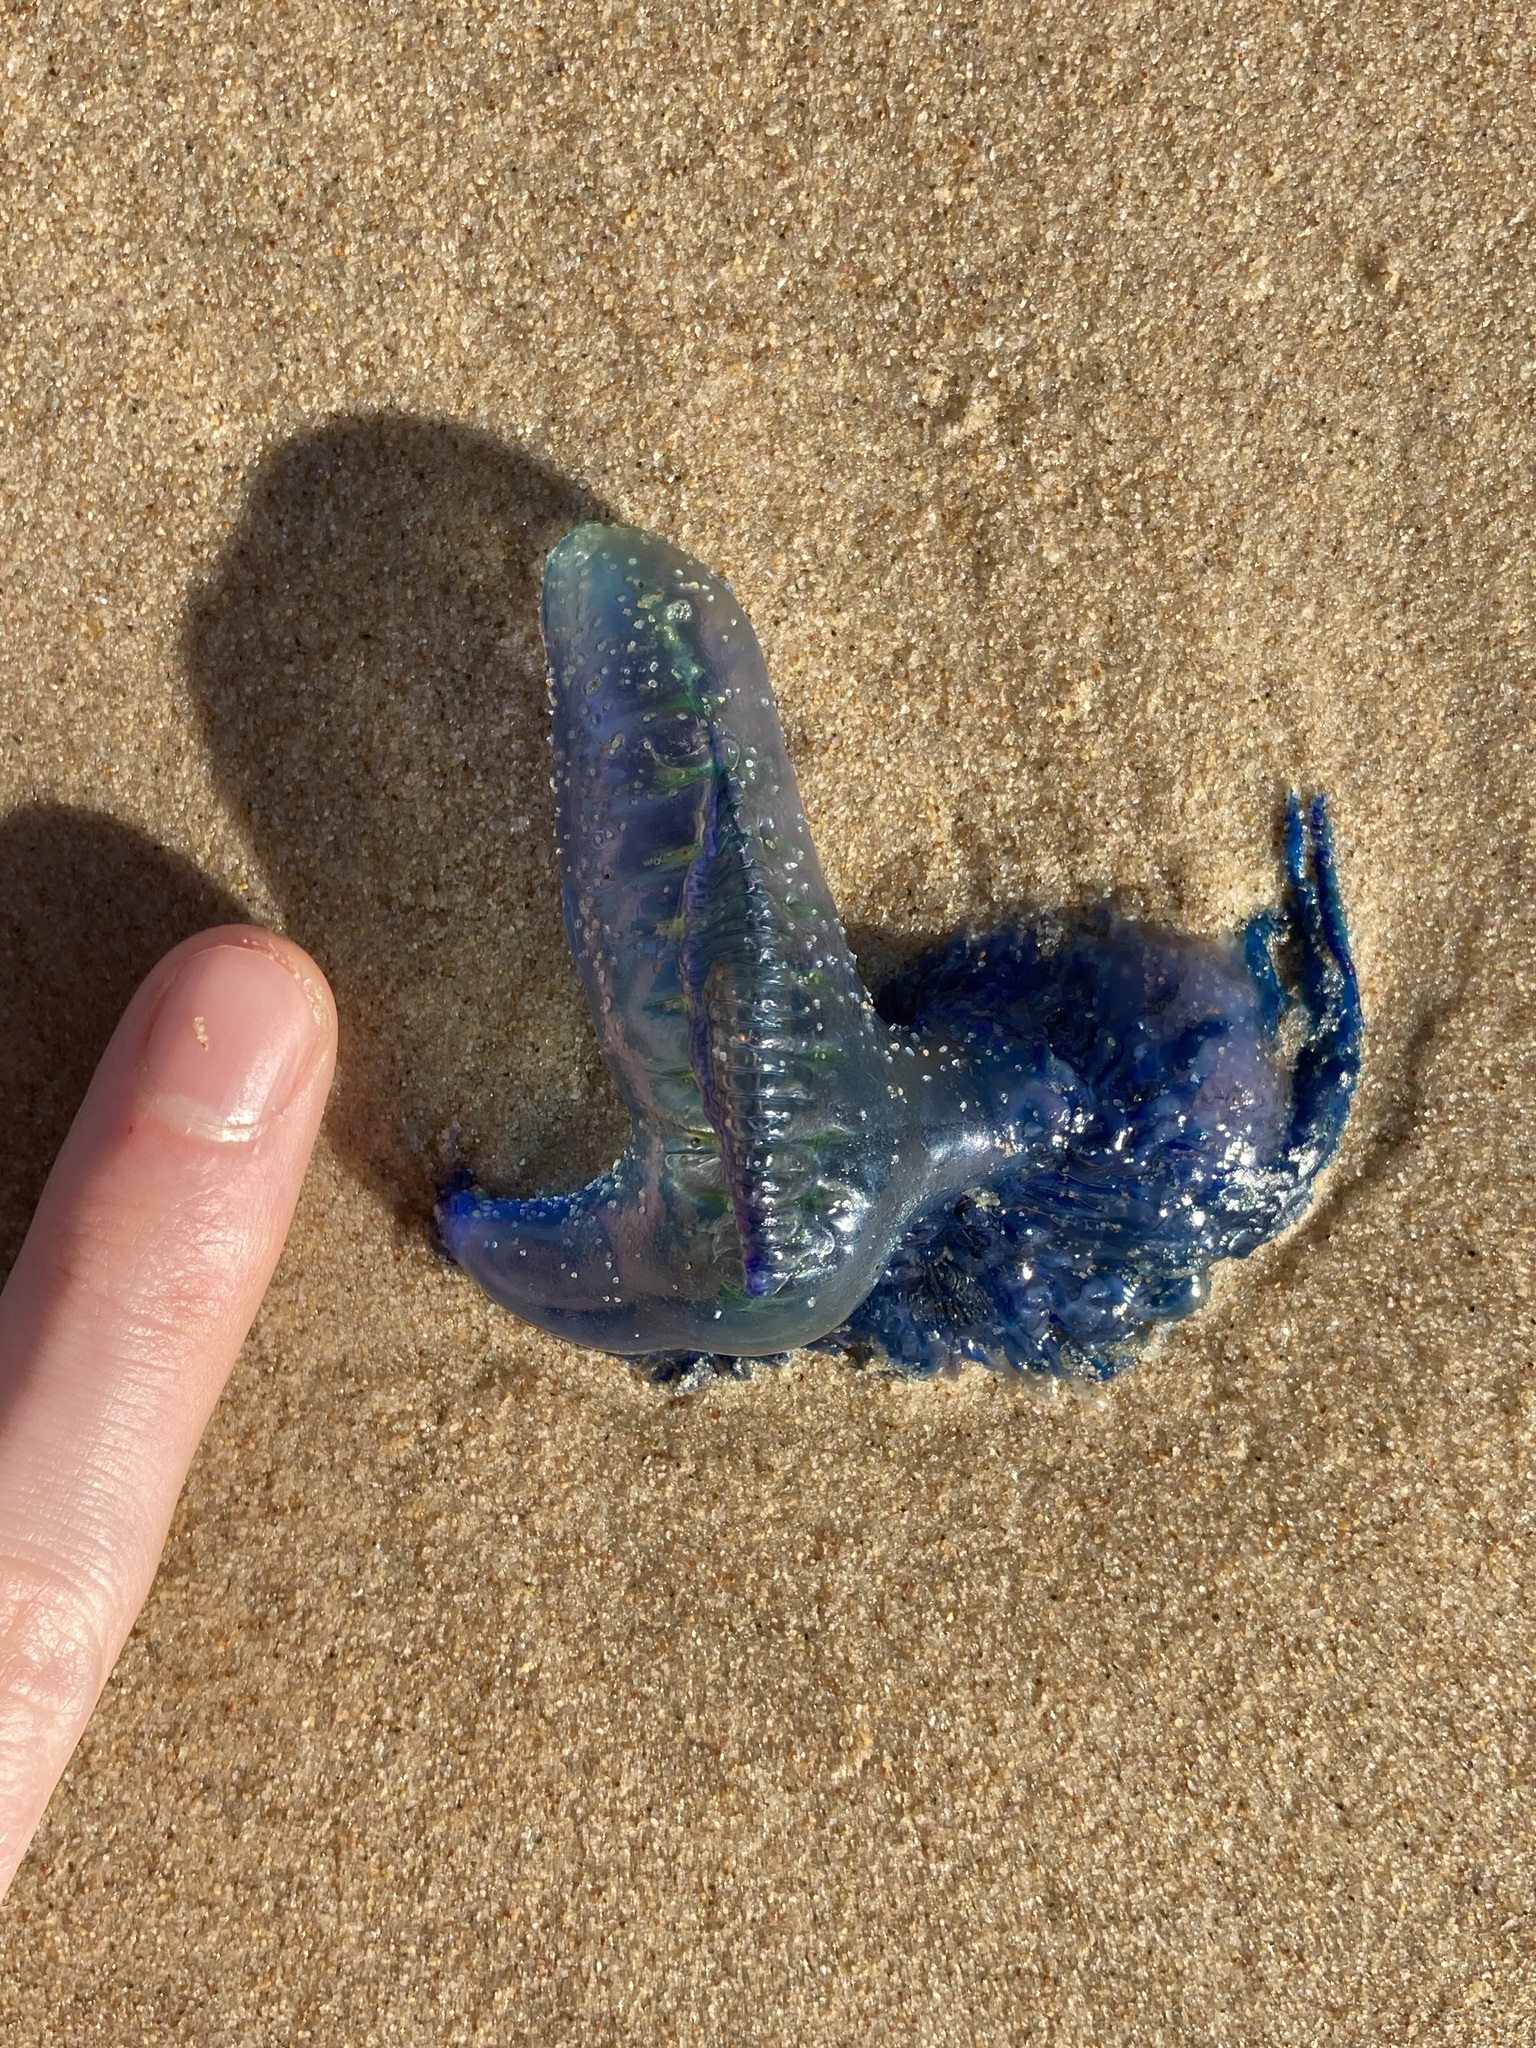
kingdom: Animalia
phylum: Cnidaria
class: Hydrozoa
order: Siphonophorae
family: Physaliidae
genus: Physalia
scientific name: Physalia physalis
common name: Portuguese man-of-war
